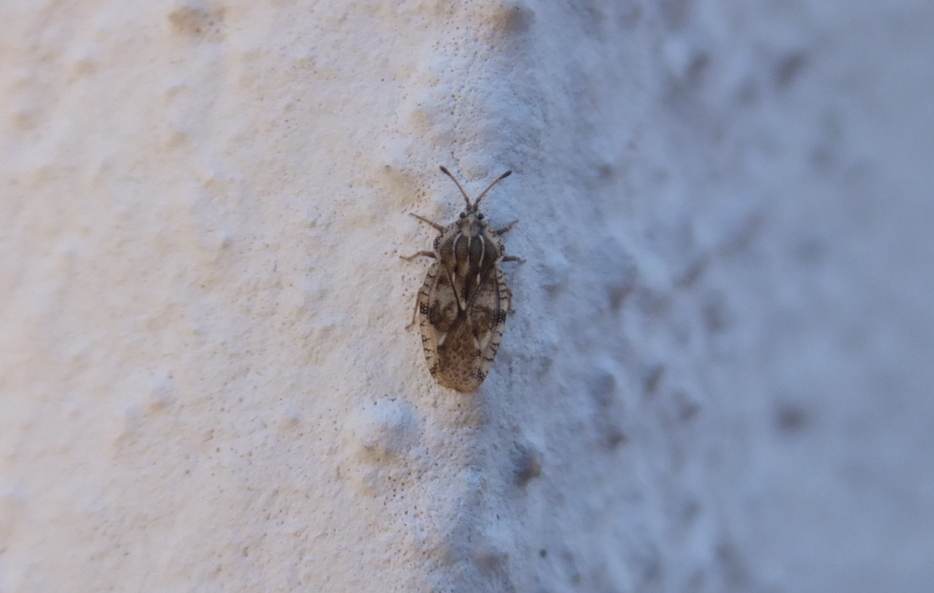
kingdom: Animalia
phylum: Arthropoda
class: Insecta
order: Hemiptera
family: Tingidae
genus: Tingis
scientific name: Tingis cardui
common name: Spear thistle lacebug
